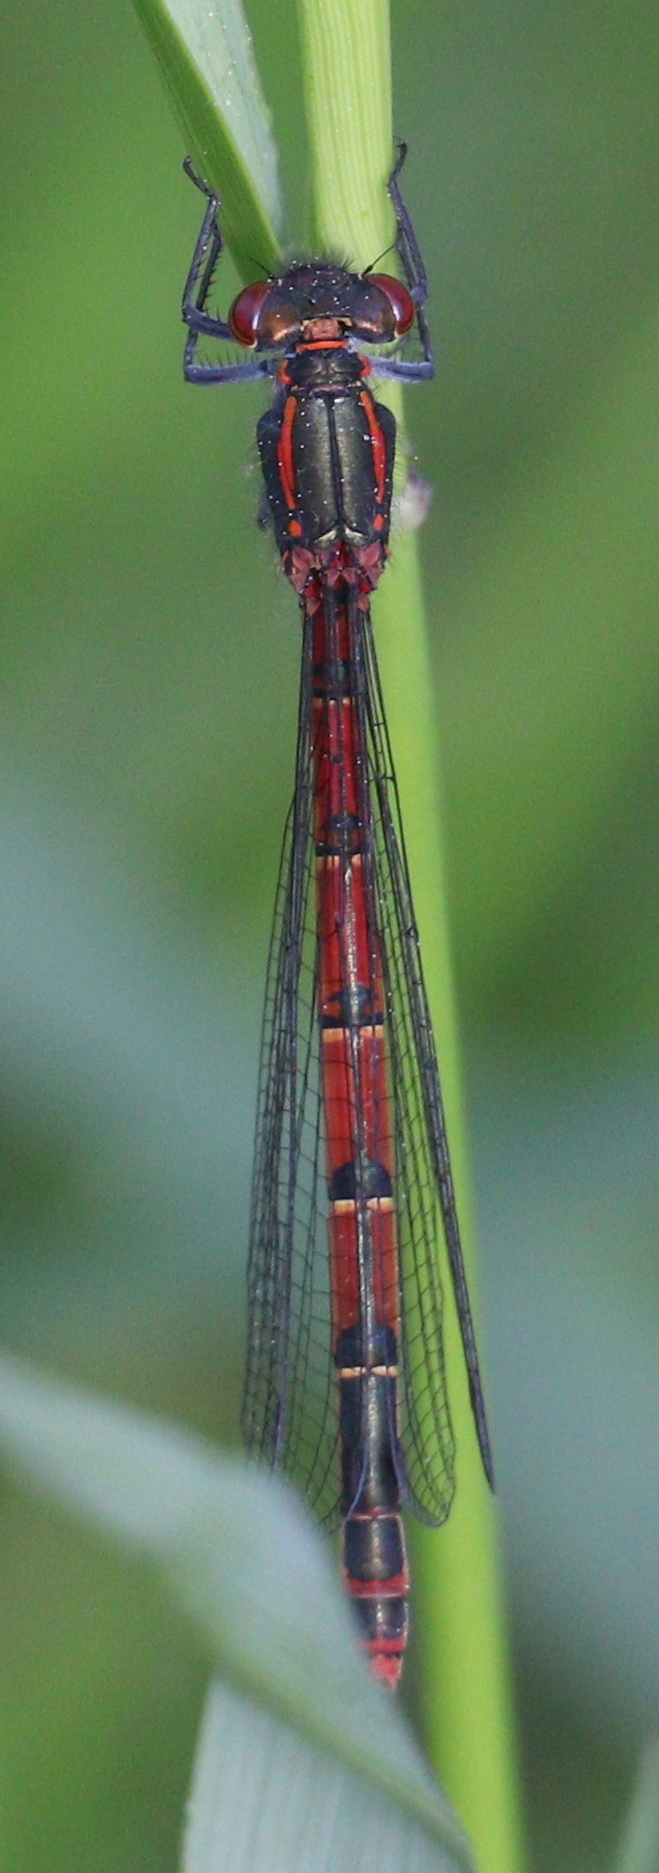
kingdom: Animalia
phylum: Arthropoda
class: Insecta
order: Odonata
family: Coenagrionidae
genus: Pyrrhosoma
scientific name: Pyrrhosoma nymphula
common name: Large red damsel
